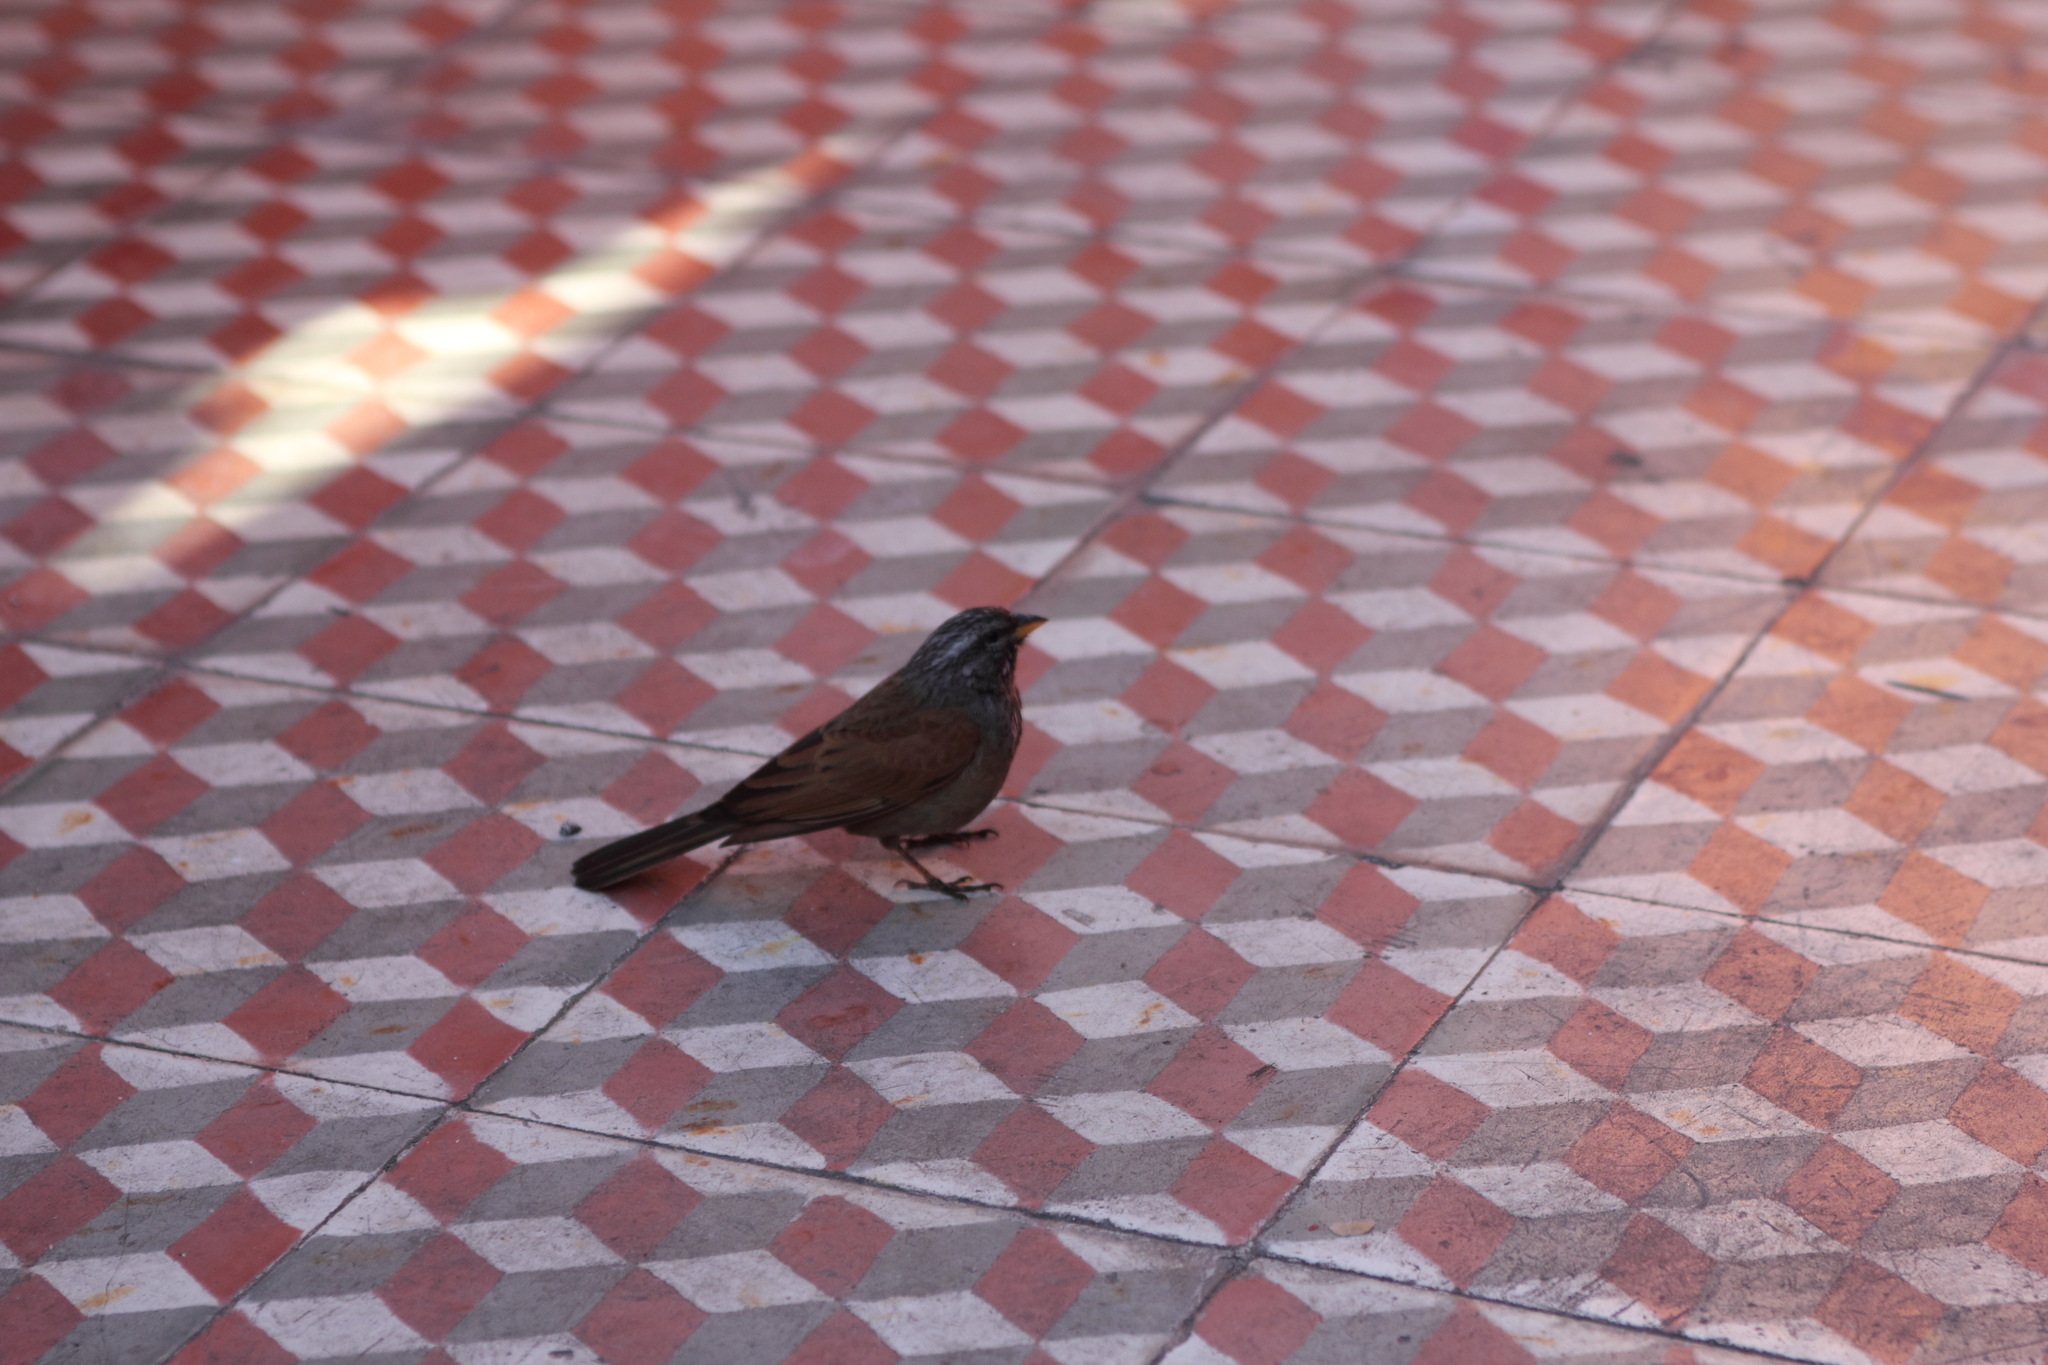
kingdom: Animalia
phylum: Chordata
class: Aves
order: Passeriformes
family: Emberizidae
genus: Emberiza
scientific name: Emberiza sahari
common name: House bunting
